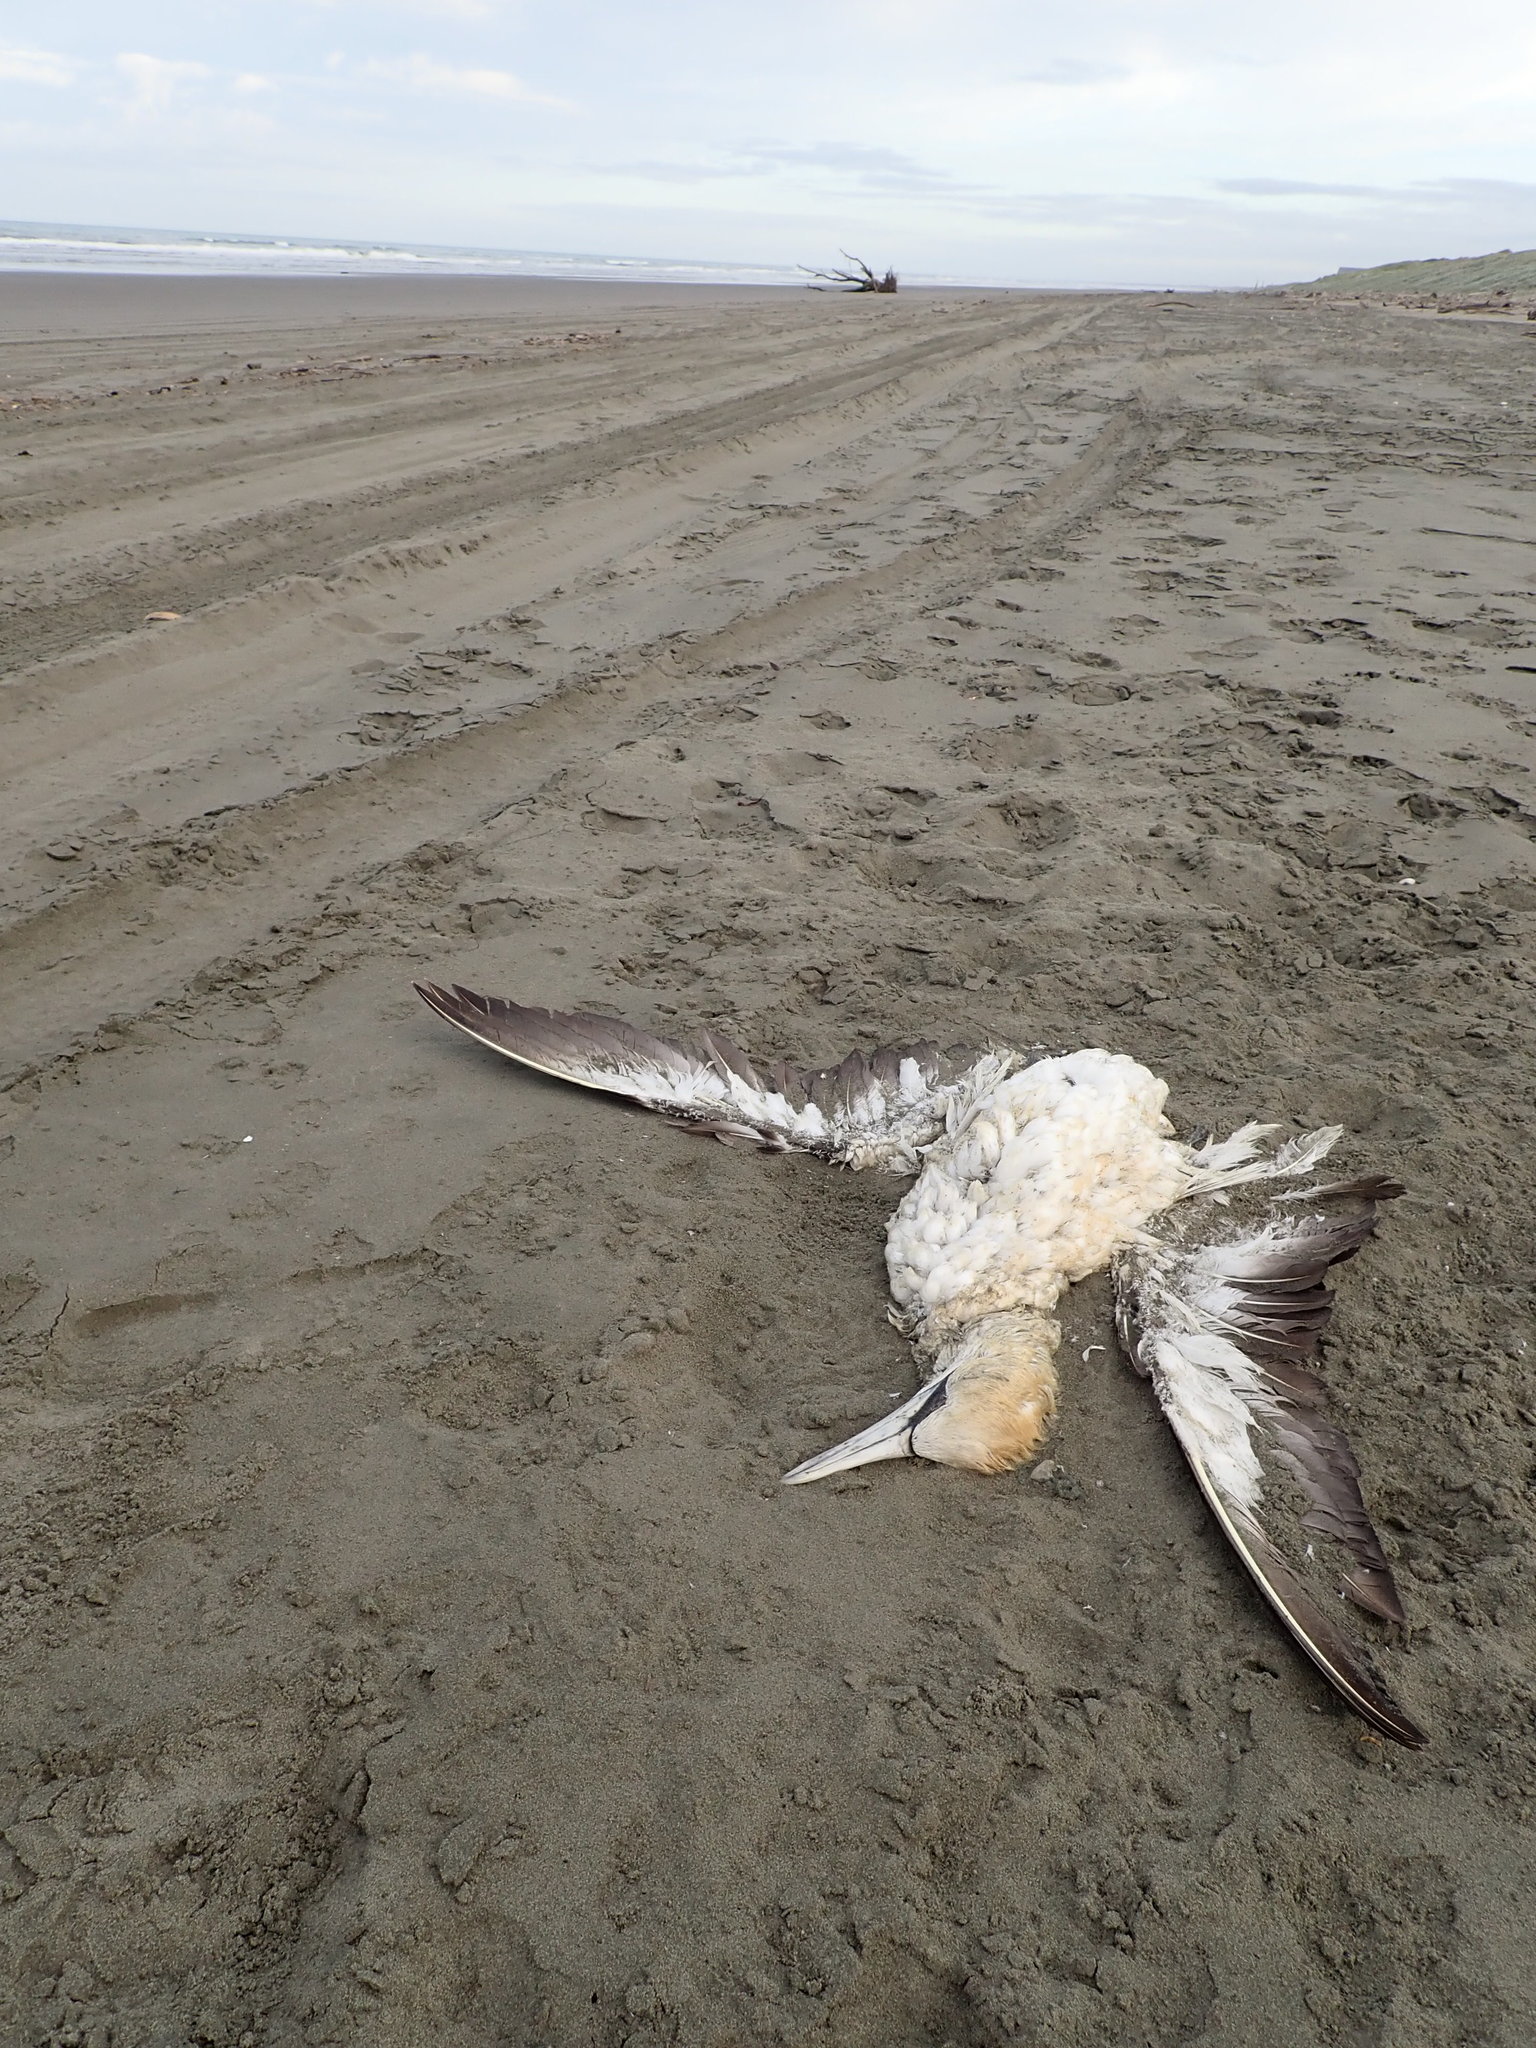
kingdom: Animalia
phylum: Chordata
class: Aves
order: Suliformes
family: Sulidae
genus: Morus
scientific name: Morus serrator
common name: Australasian gannet
